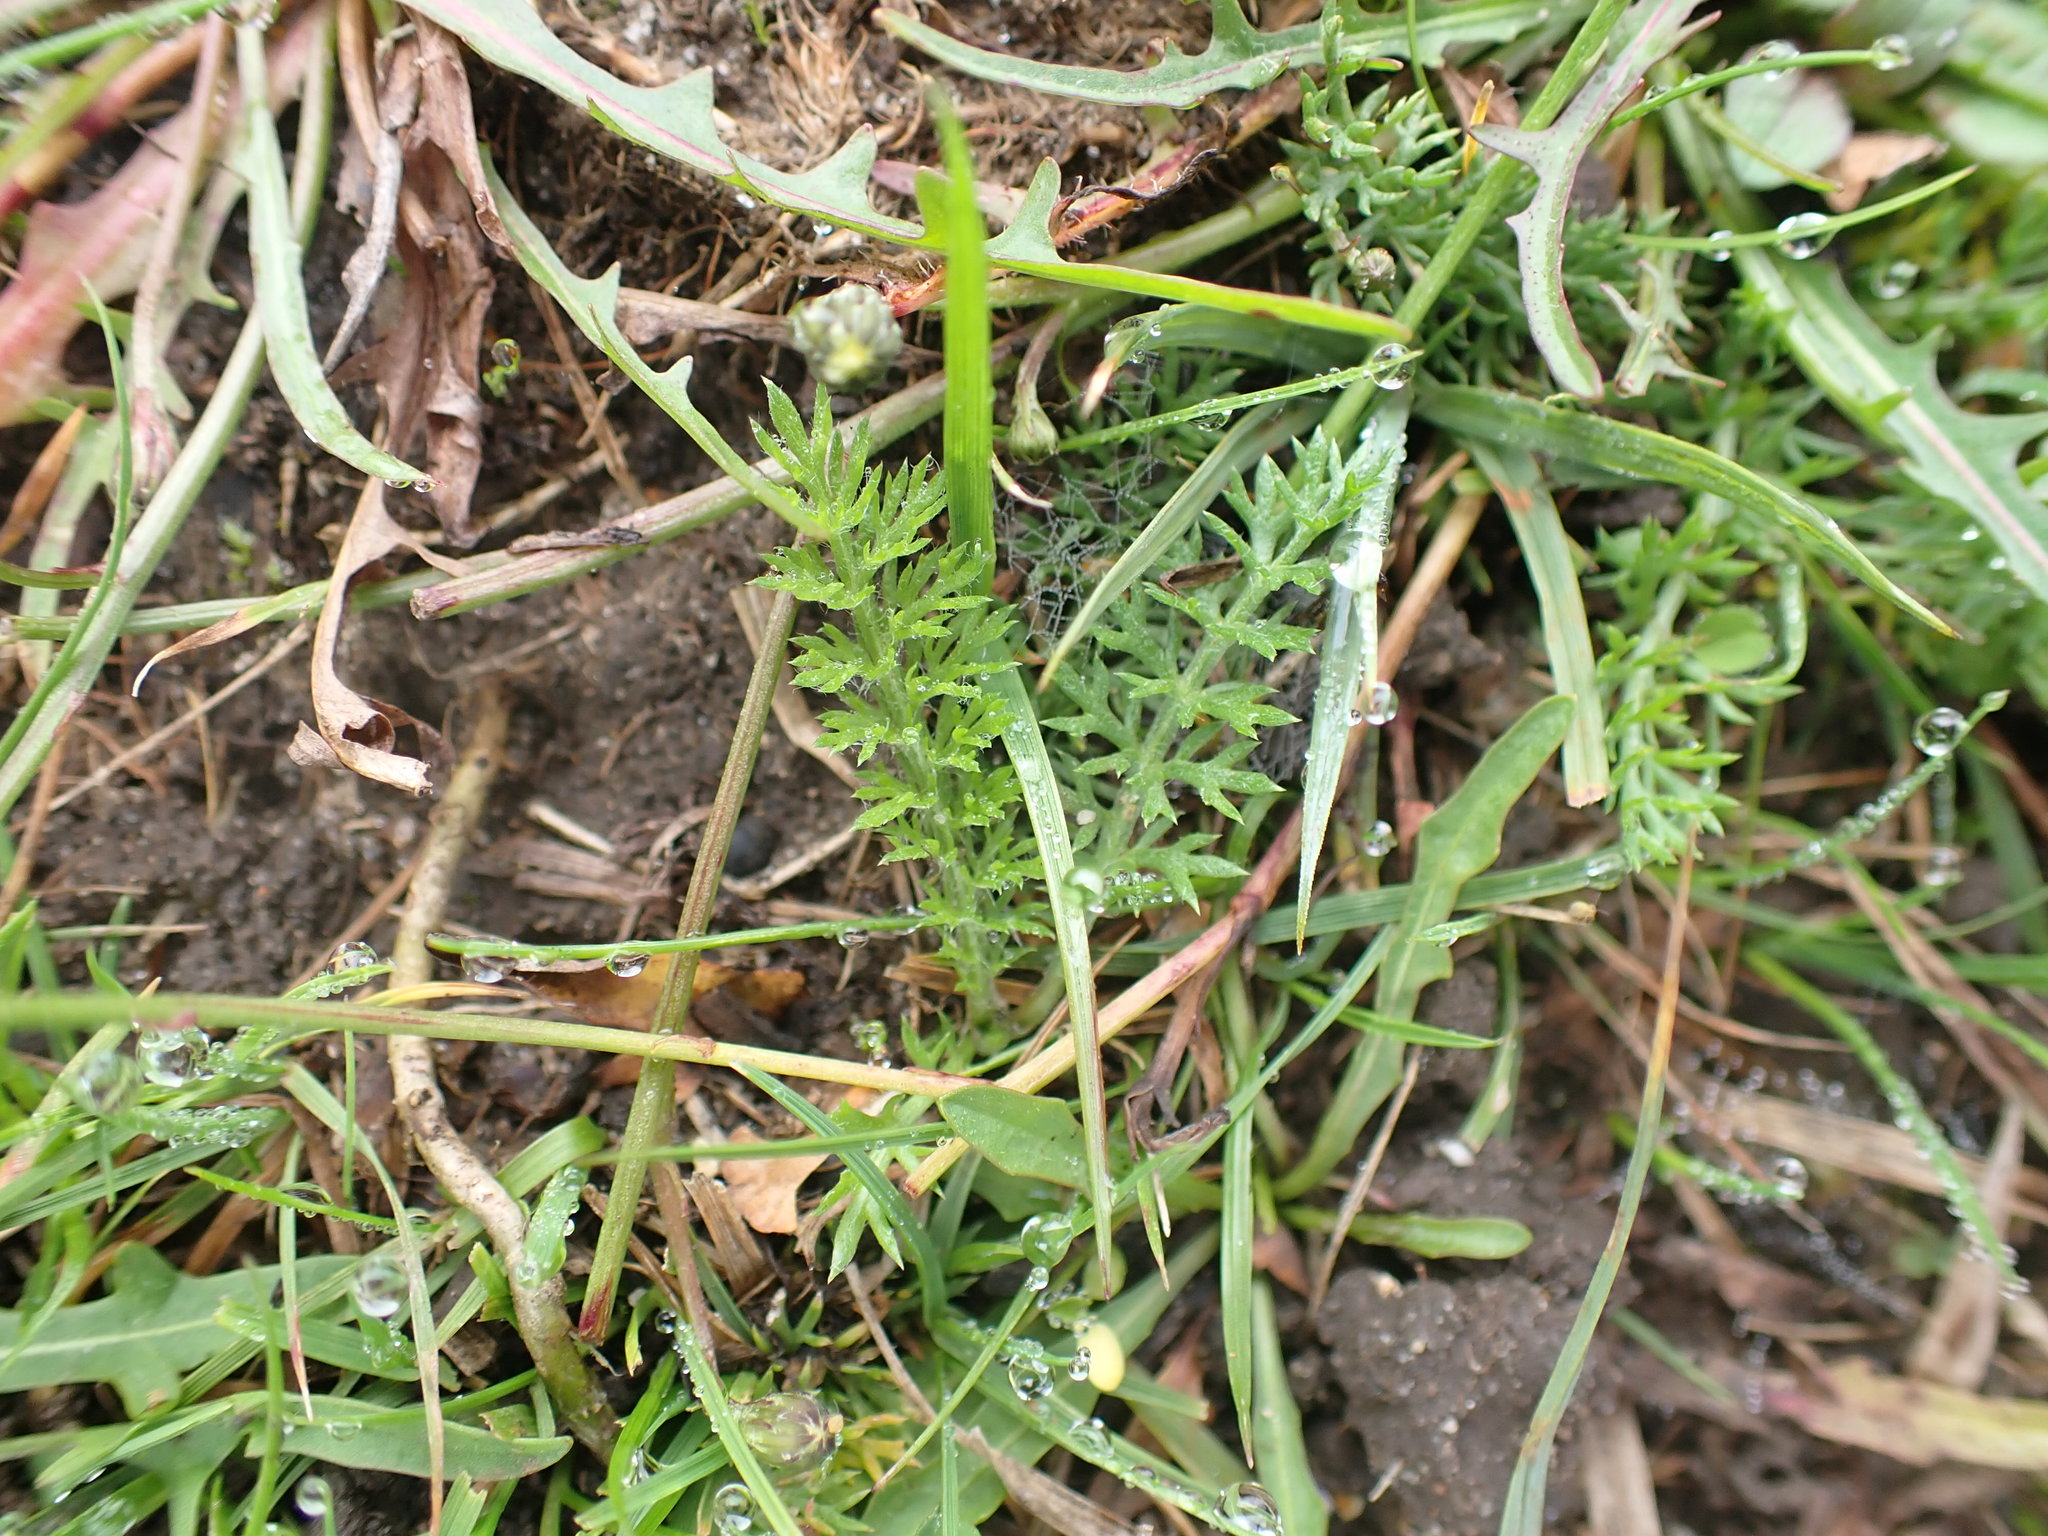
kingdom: Plantae
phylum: Tracheophyta
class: Magnoliopsida
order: Asterales
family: Asteraceae
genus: Achillea
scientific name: Achillea millefolium
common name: Yarrow
